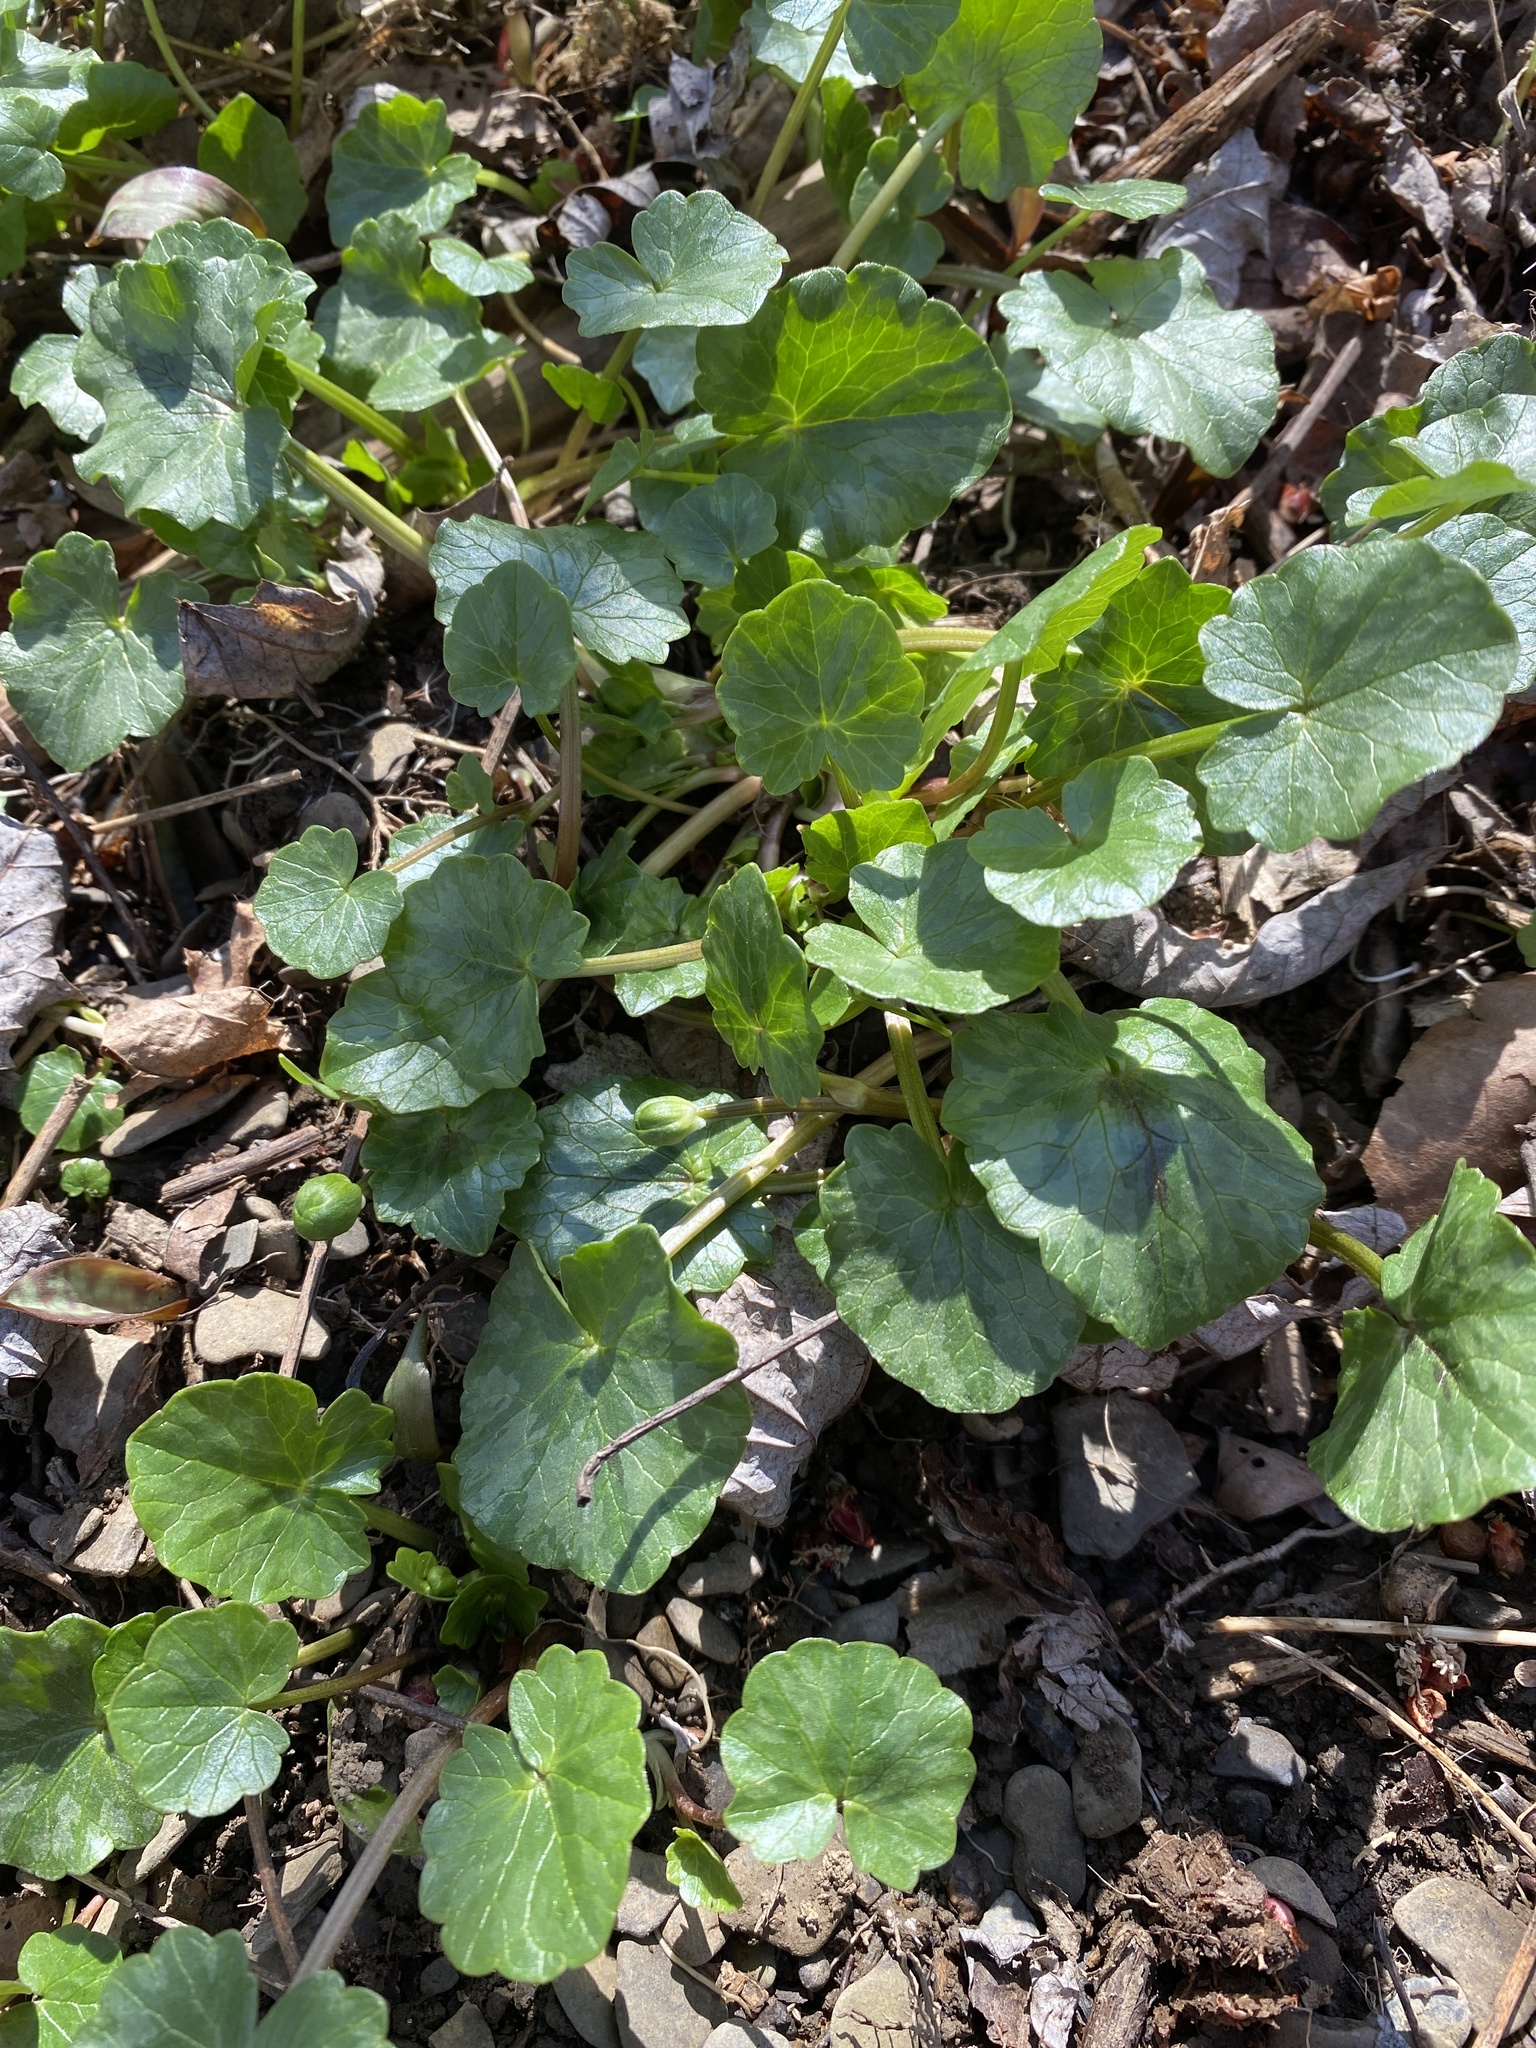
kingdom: Plantae
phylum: Tracheophyta
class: Magnoliopsida
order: Ranunculales
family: Ranunculaceae
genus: Ficaria
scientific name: Ficaria verna
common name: Lesser celandine
